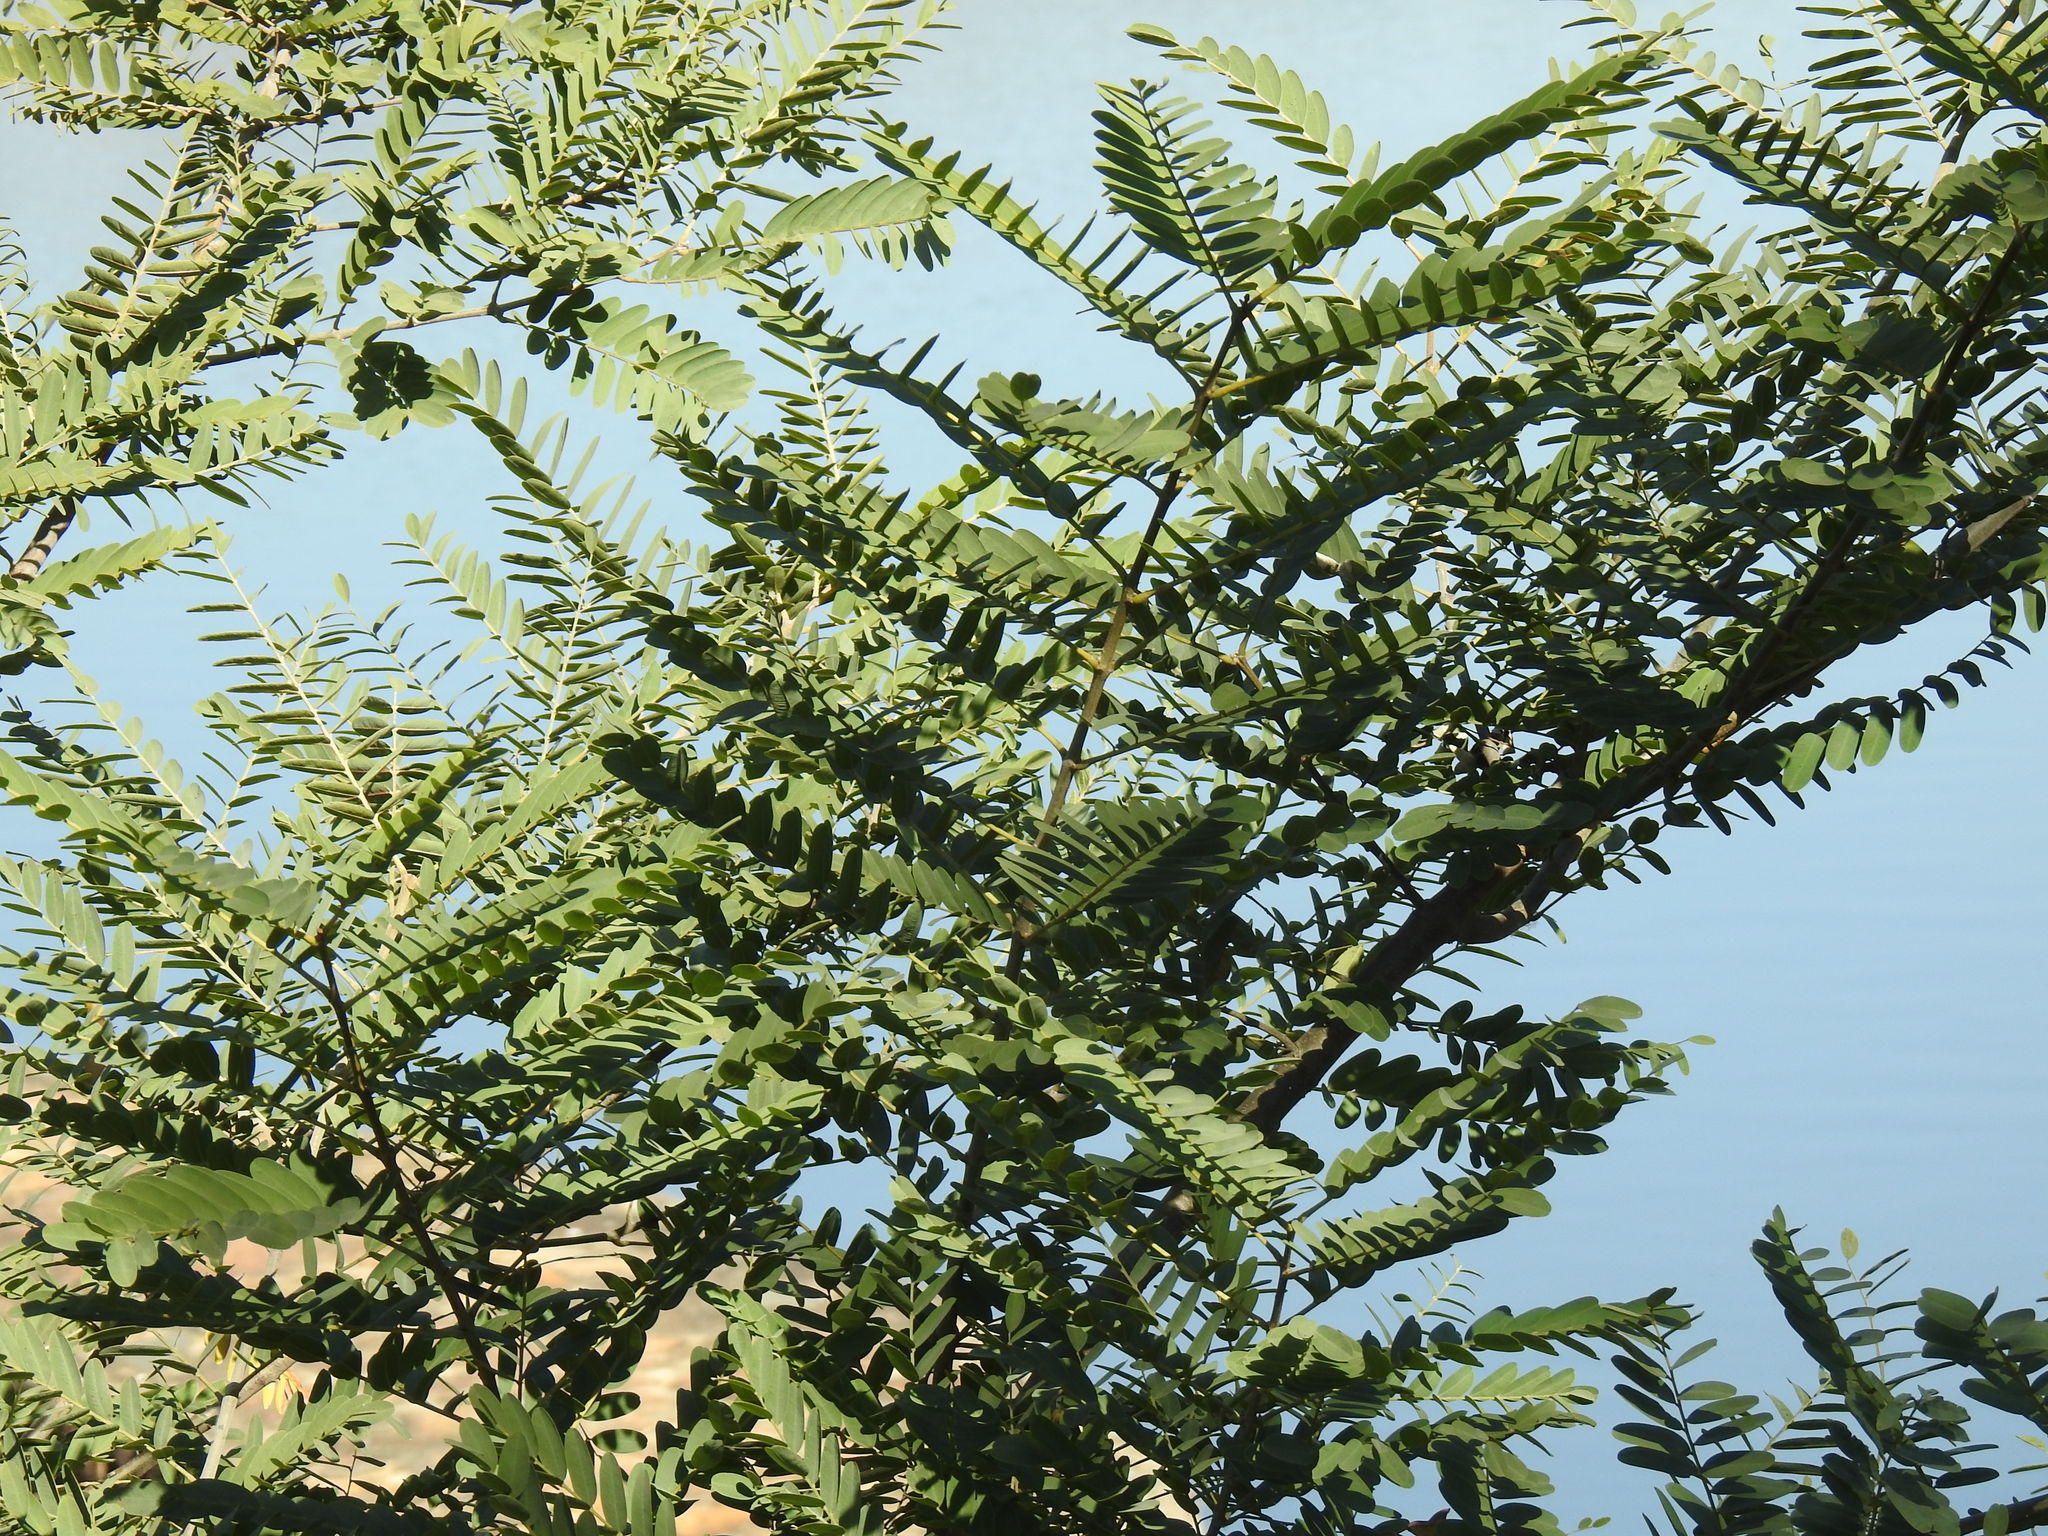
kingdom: Plantae
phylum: Tracheophyta
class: Magnoliopsida
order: Fabales
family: Fabaceae
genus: Tipuana
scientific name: Tipuana tipu
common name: Tiputree
